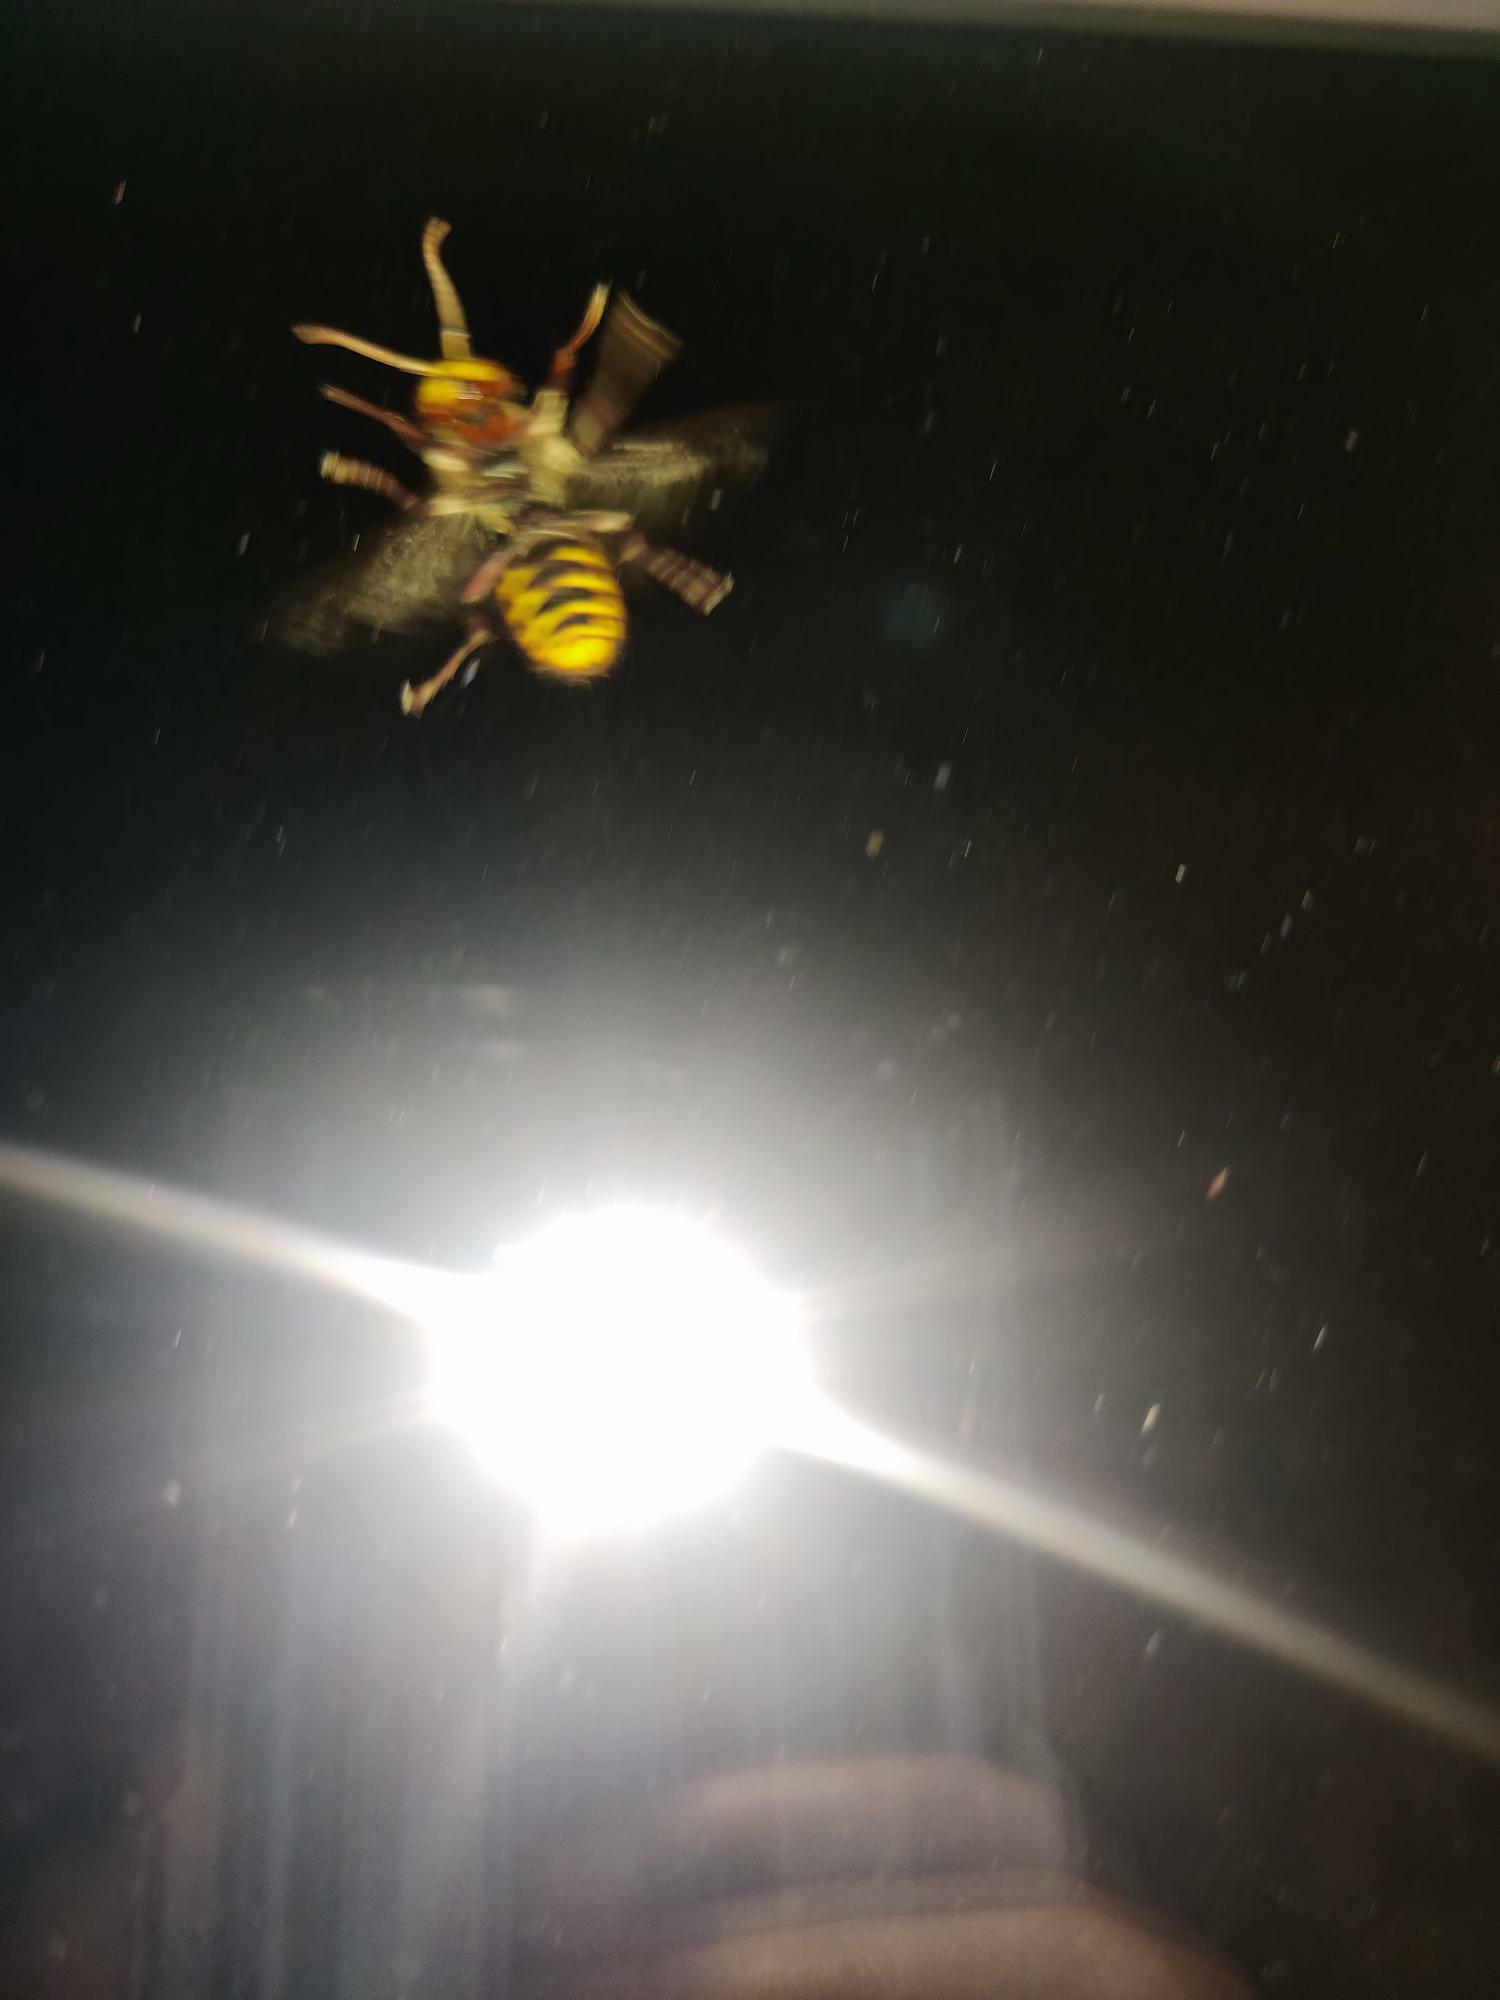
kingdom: Animalia
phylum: Arthropoda
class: Insecta
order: Hymenoptera
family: Vespidae
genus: Vespa
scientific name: Vespa crabro
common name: Hornet
